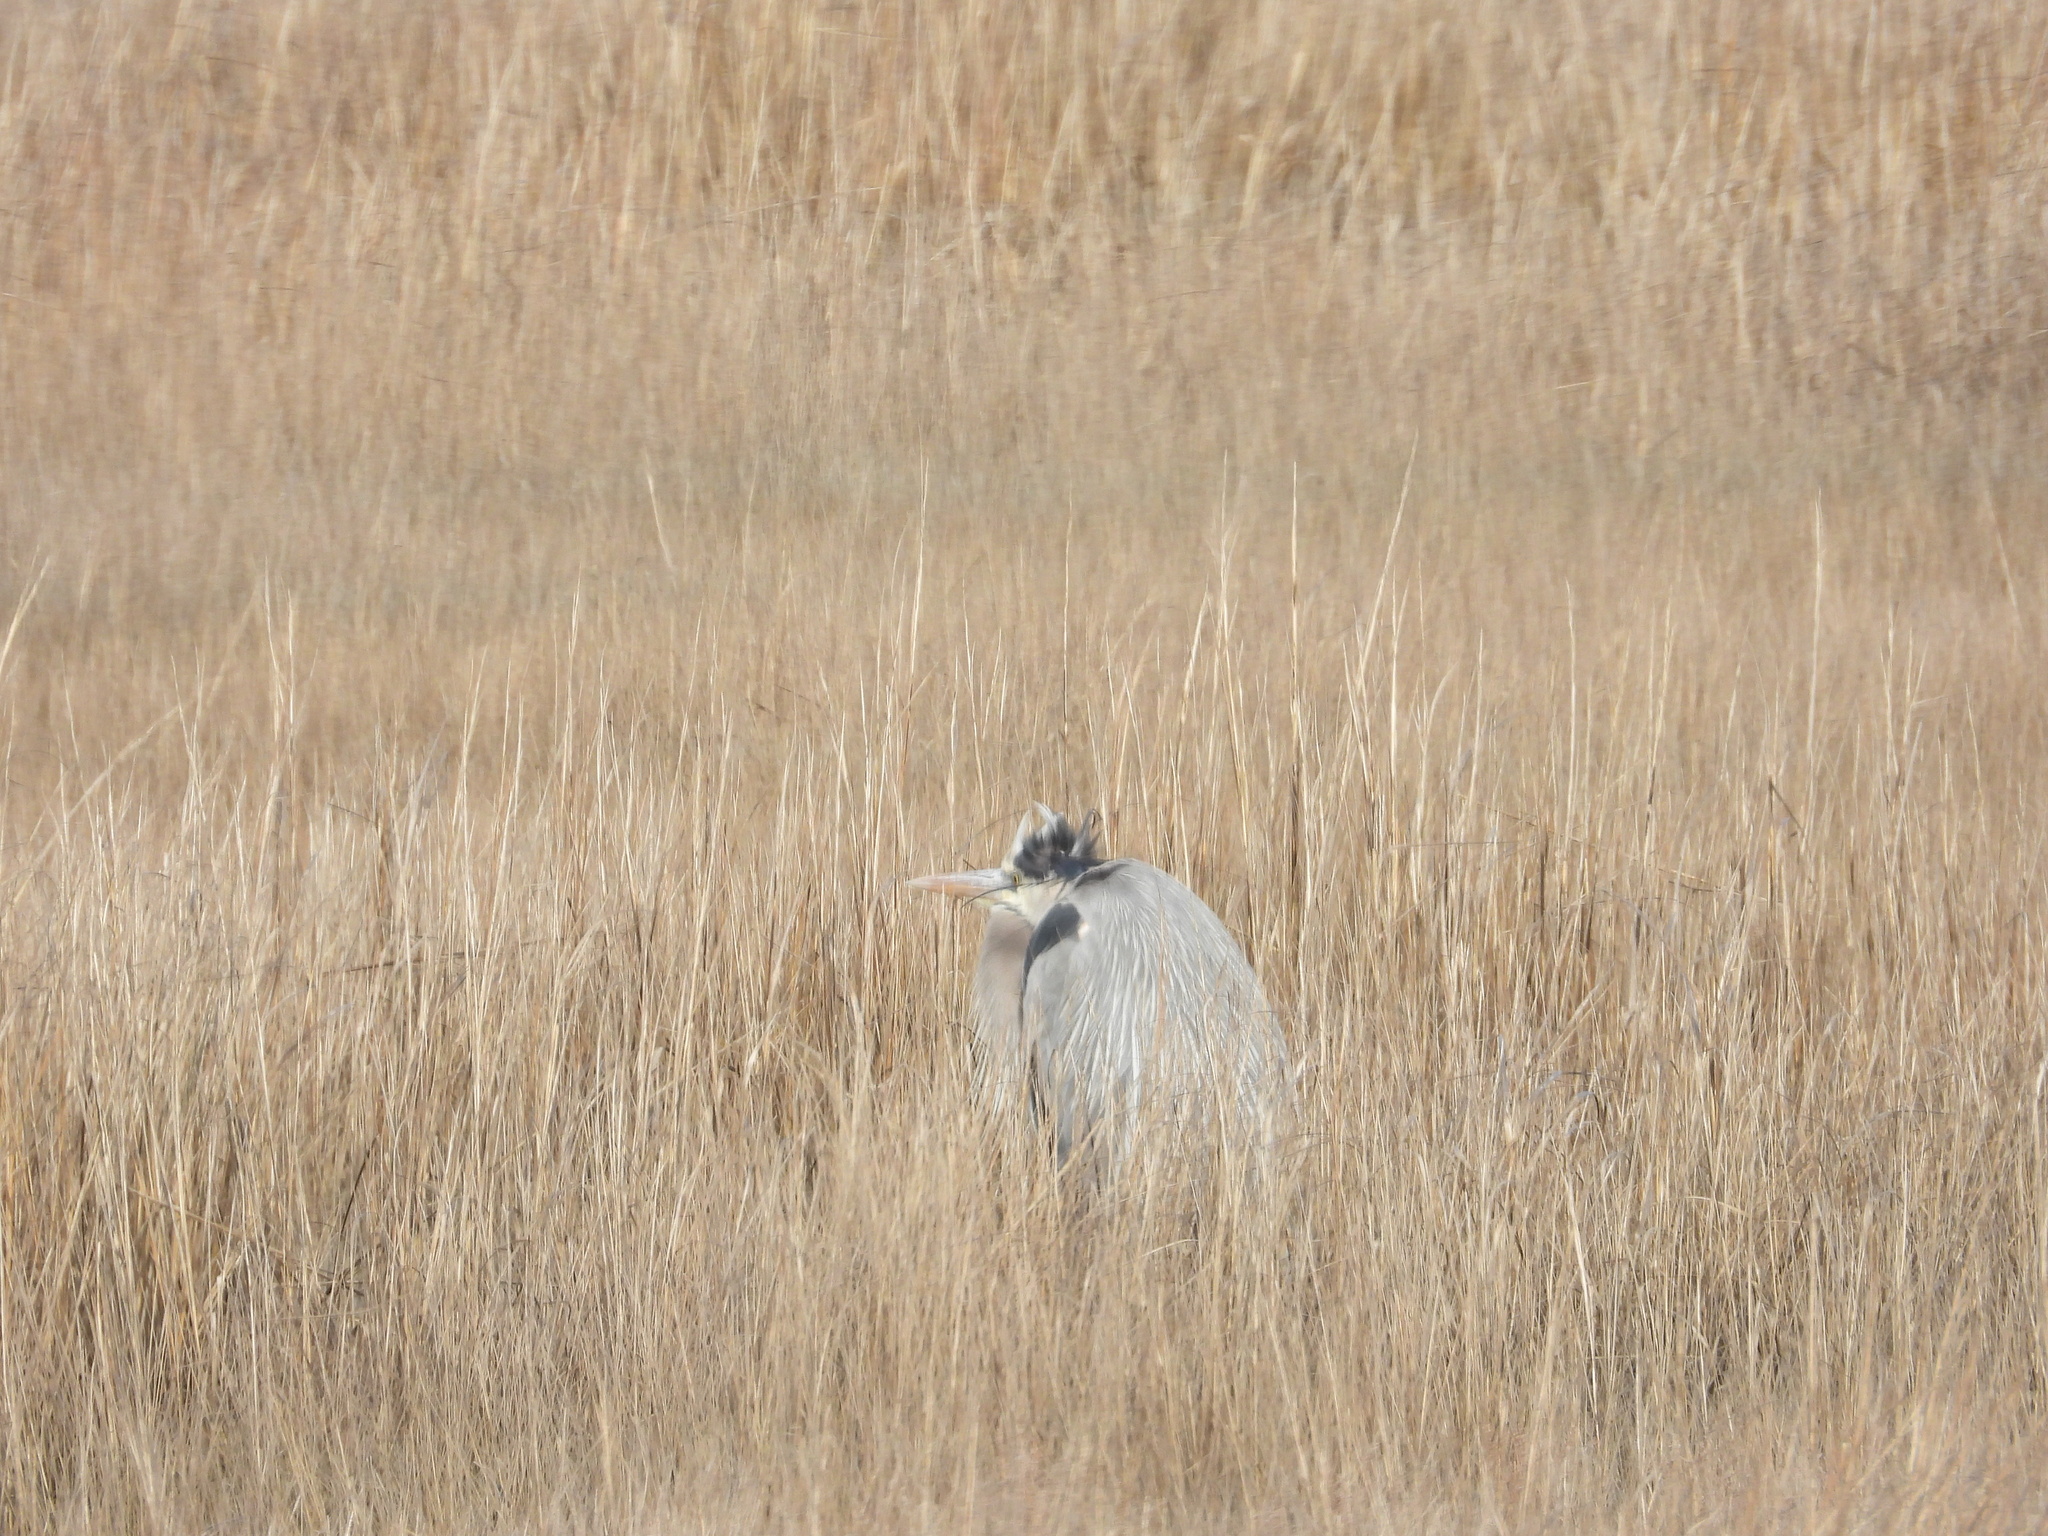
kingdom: Animalia
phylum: Chordata
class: Aves
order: Pelecaniformes
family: Ardeidae
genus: Ardea
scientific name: Ardea herodias
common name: Great blue heron
